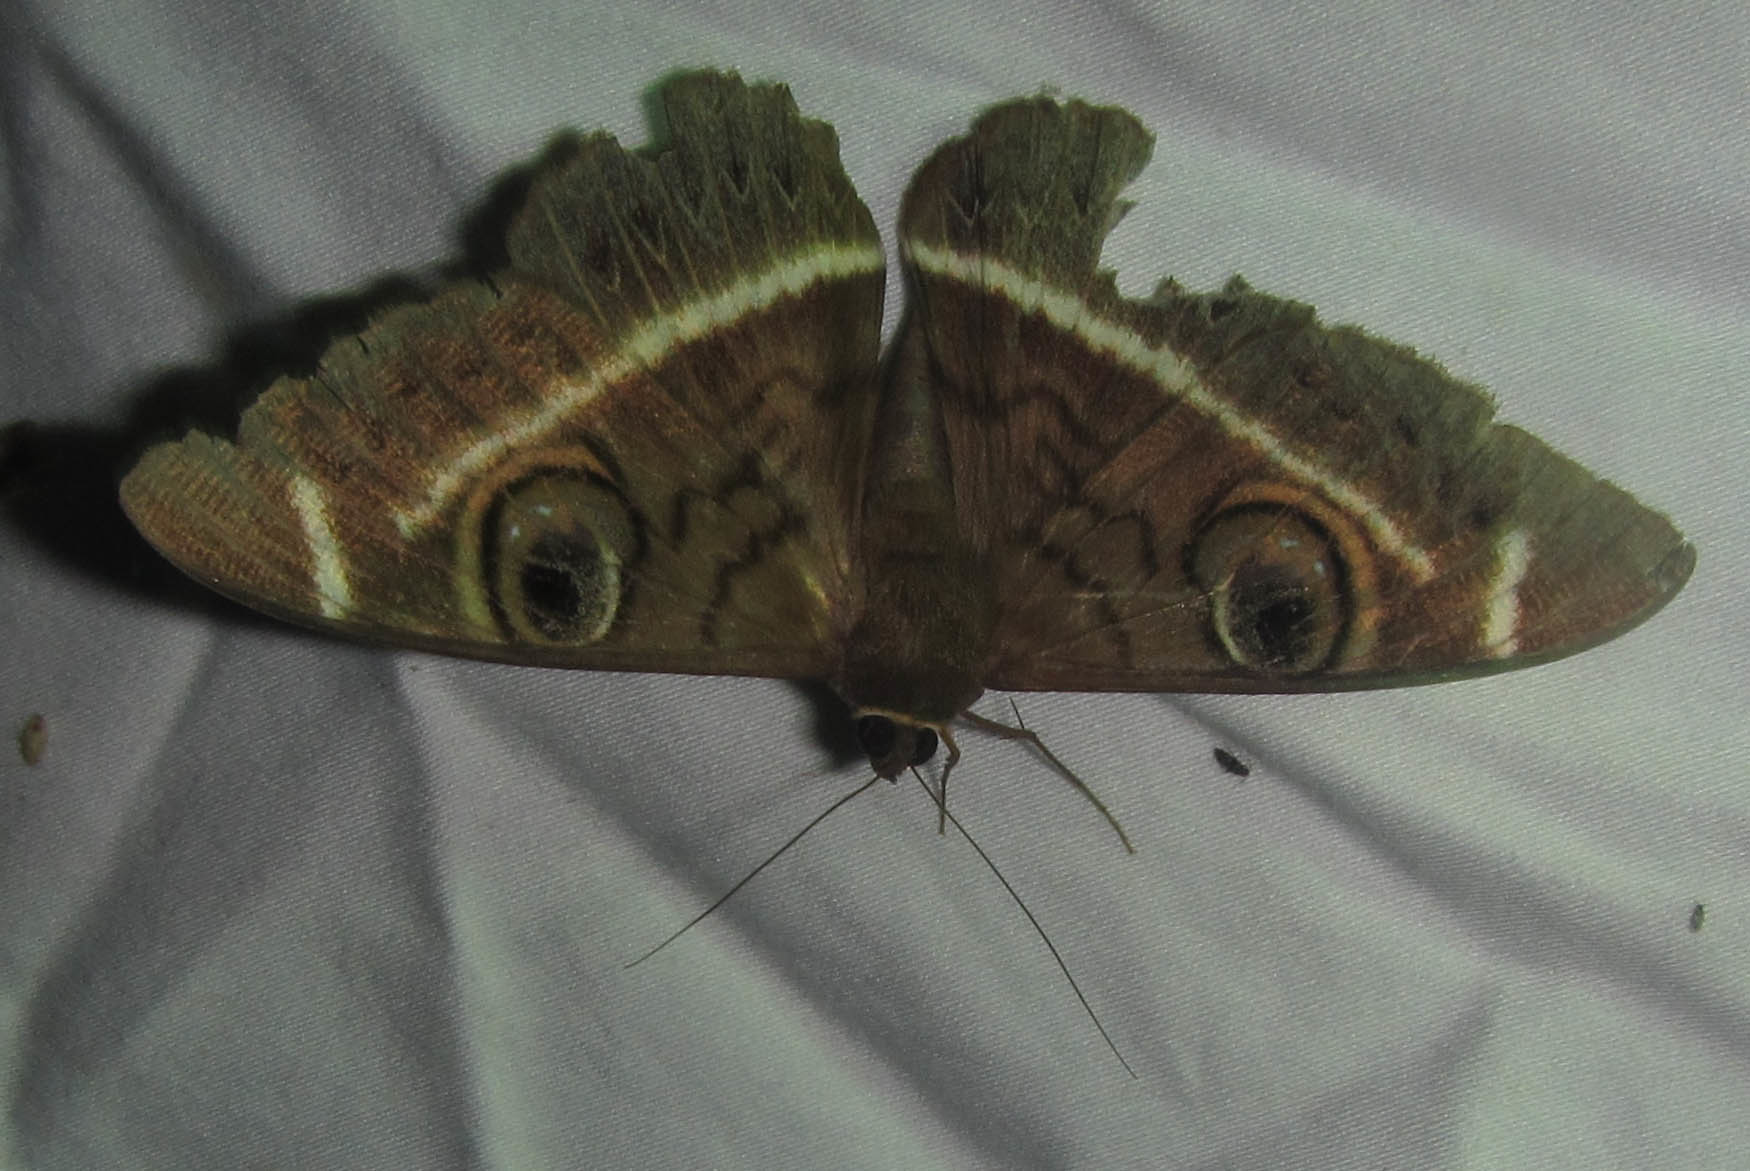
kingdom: Animalia
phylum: Arthropoda
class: Insecta
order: Lepidoptera
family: Erebidae
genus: Cyligramma
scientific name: Cyligramma latona
